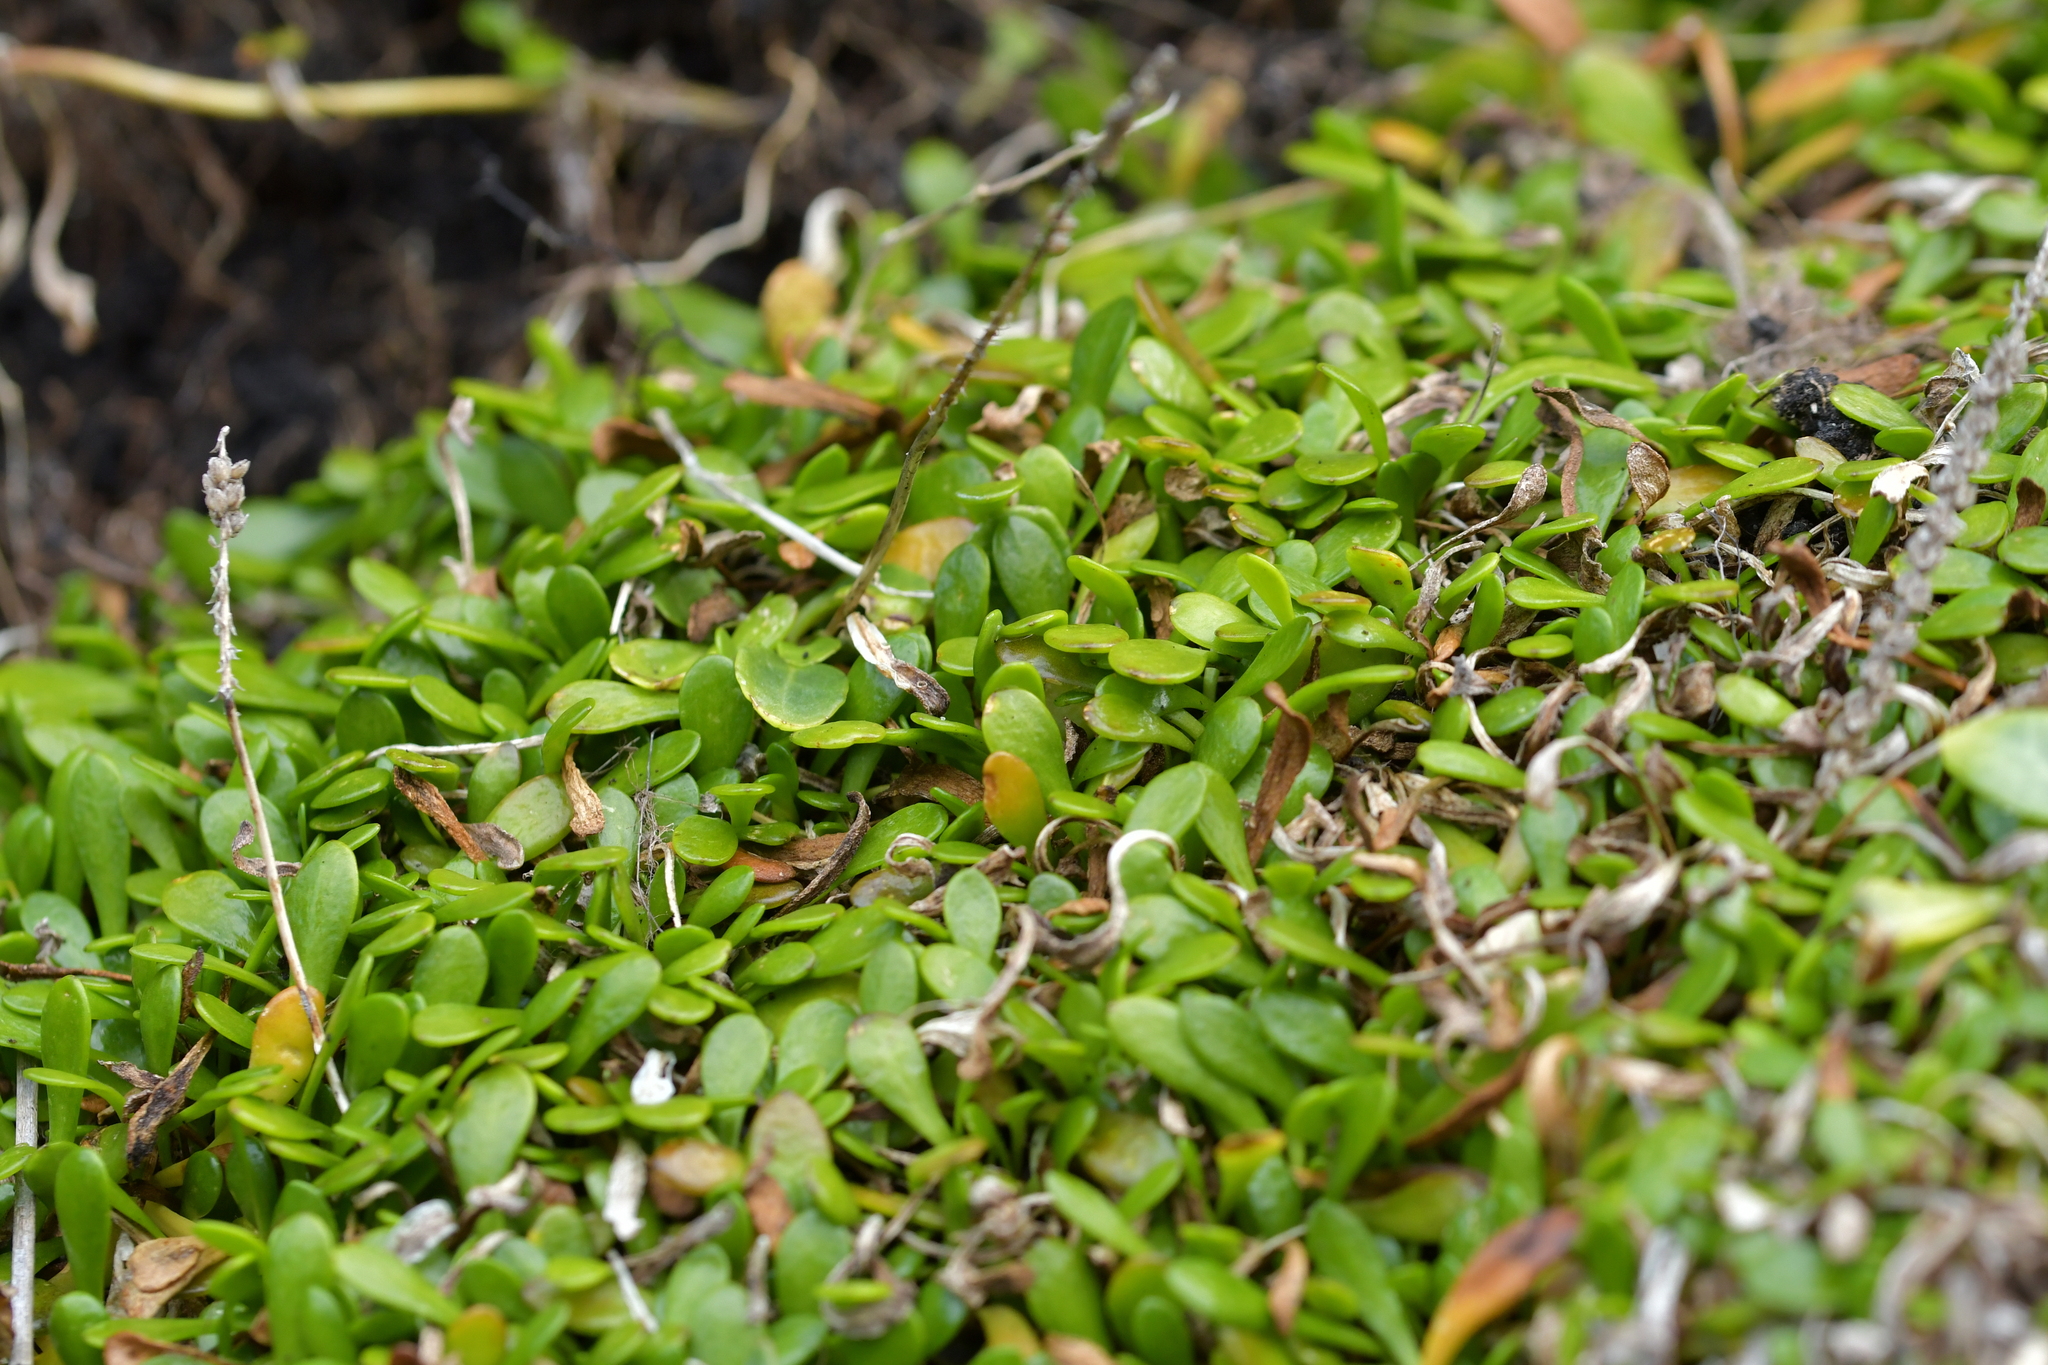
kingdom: Plantae
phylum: Tracheophyta
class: Magnoliopsida
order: Asterales
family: Goodeniaceae
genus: Goodenia
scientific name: Goodenia radicans
